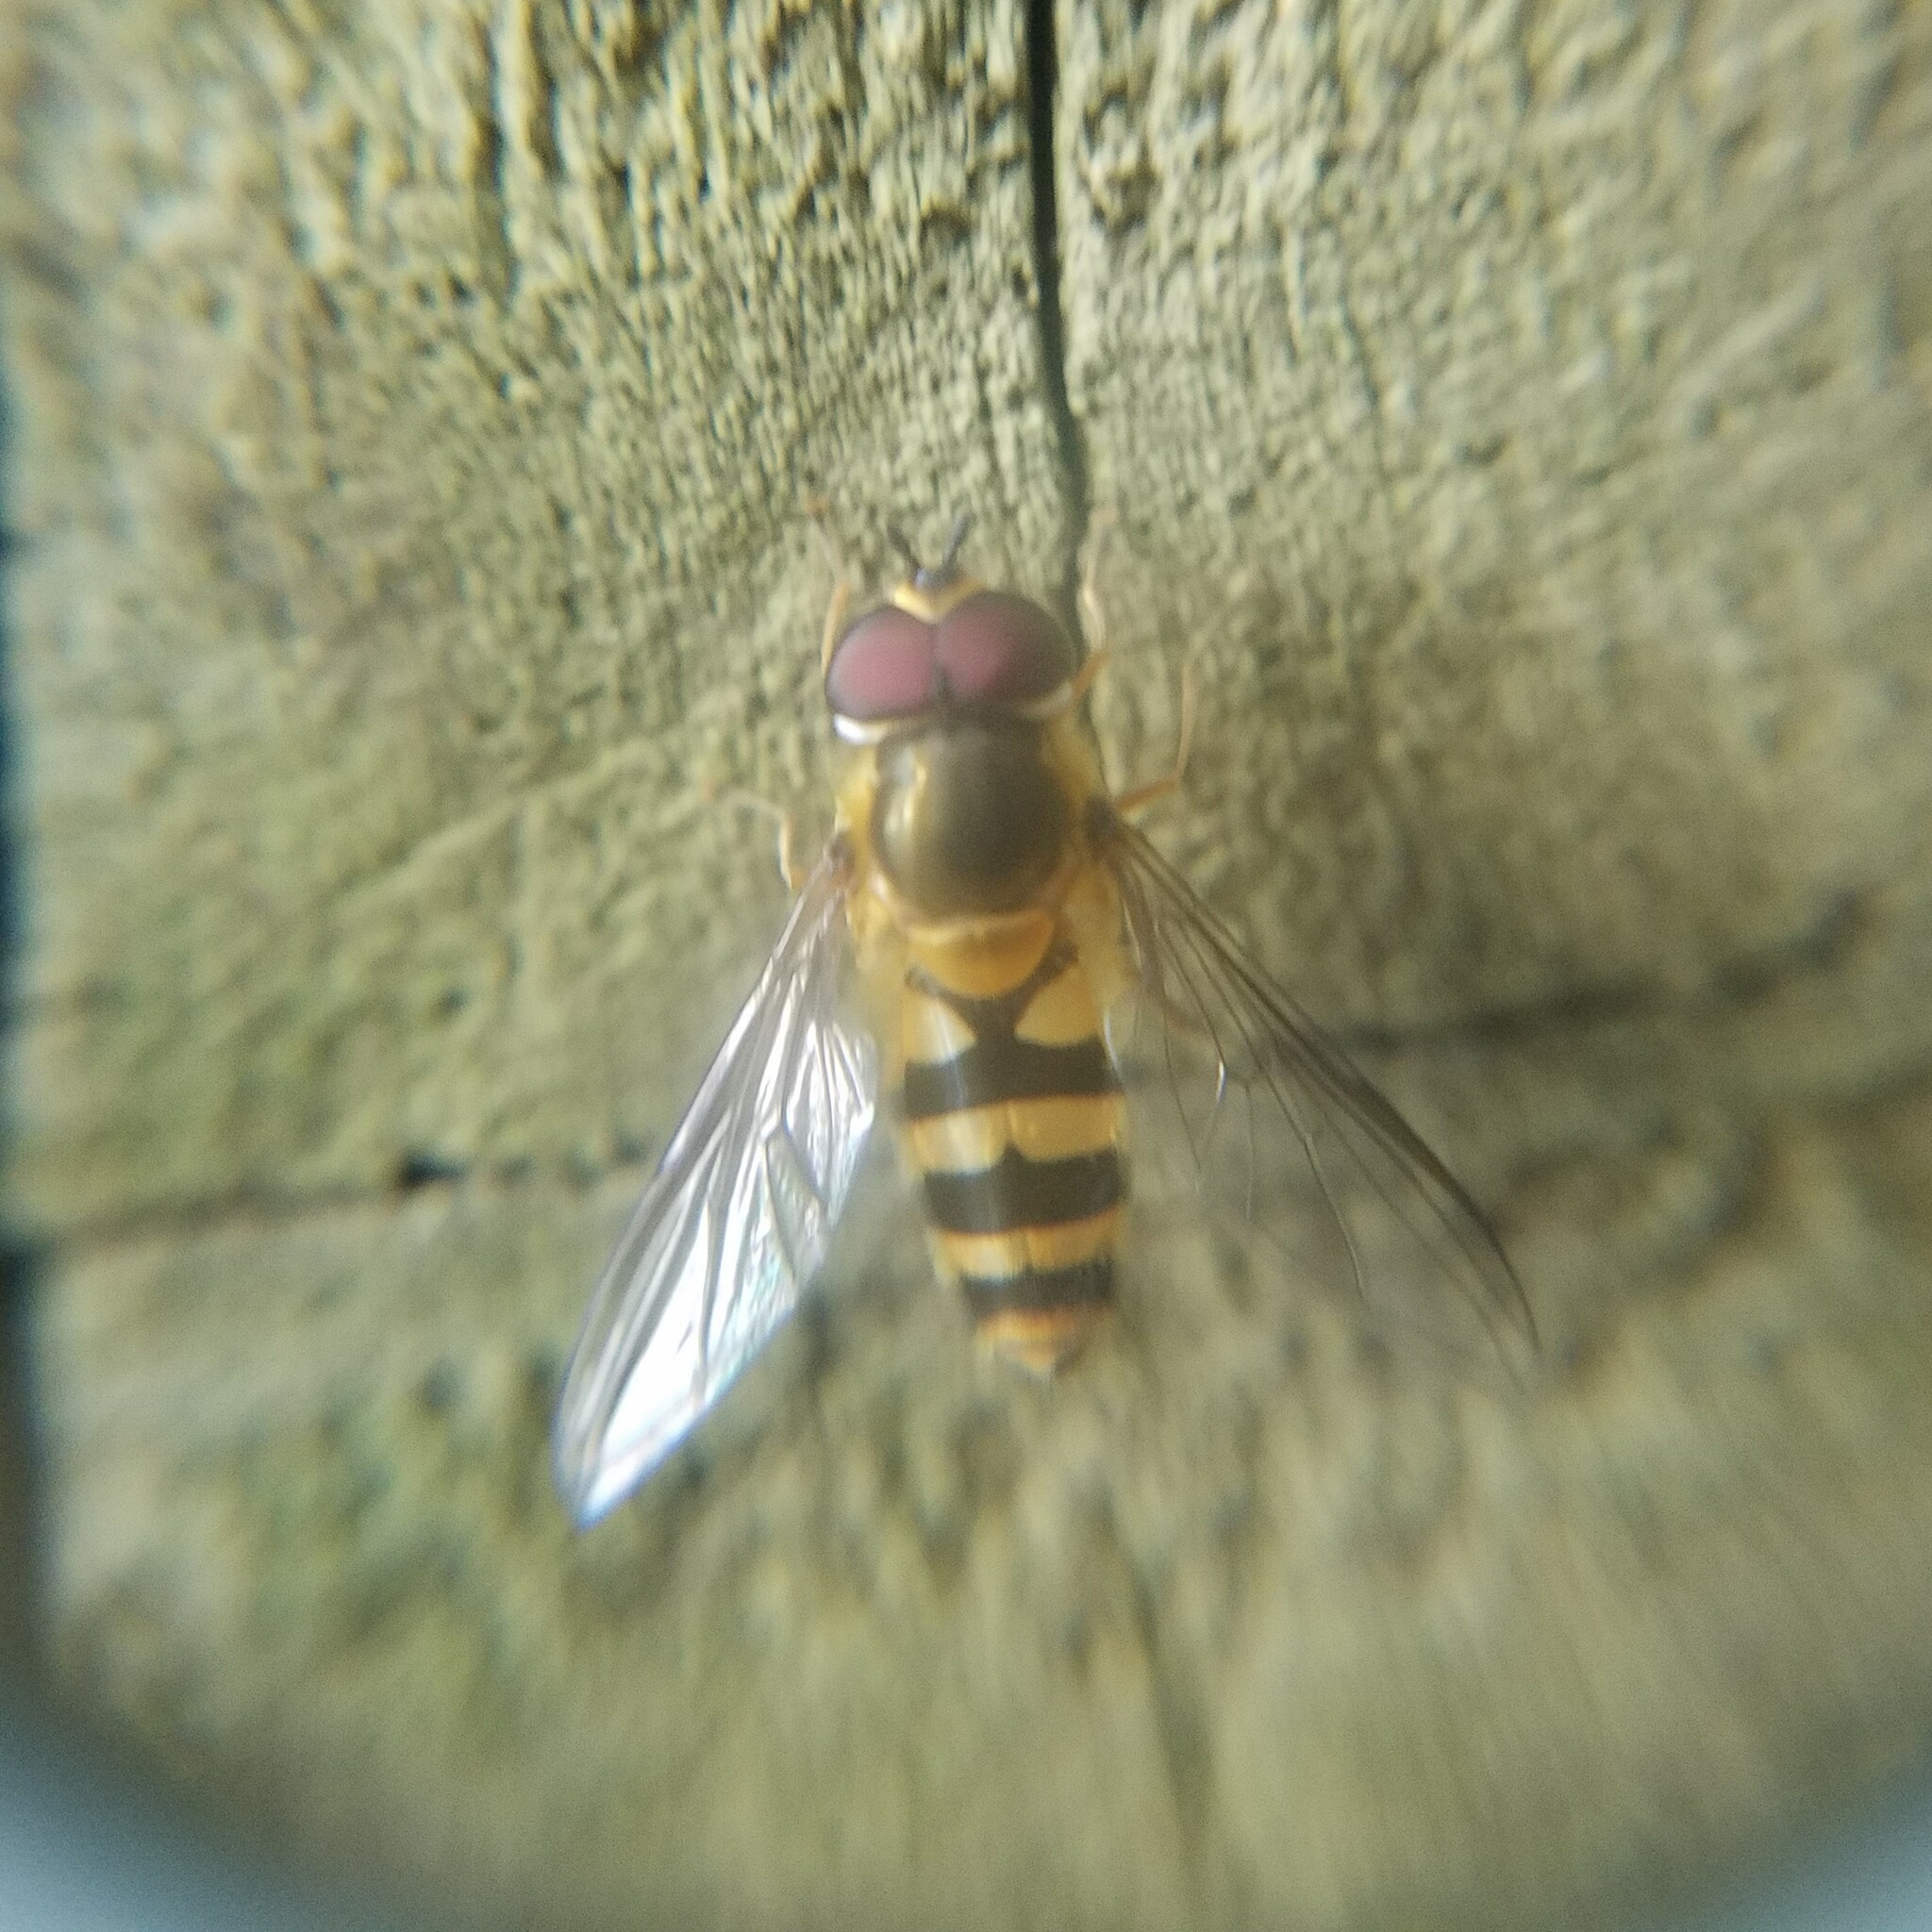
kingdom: Animalia
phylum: Arthropoda
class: Insecta
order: Diptera
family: Syrphidae
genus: Epistrophe
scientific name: Epistrophe grossulariae
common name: Black-horned smoothtail
